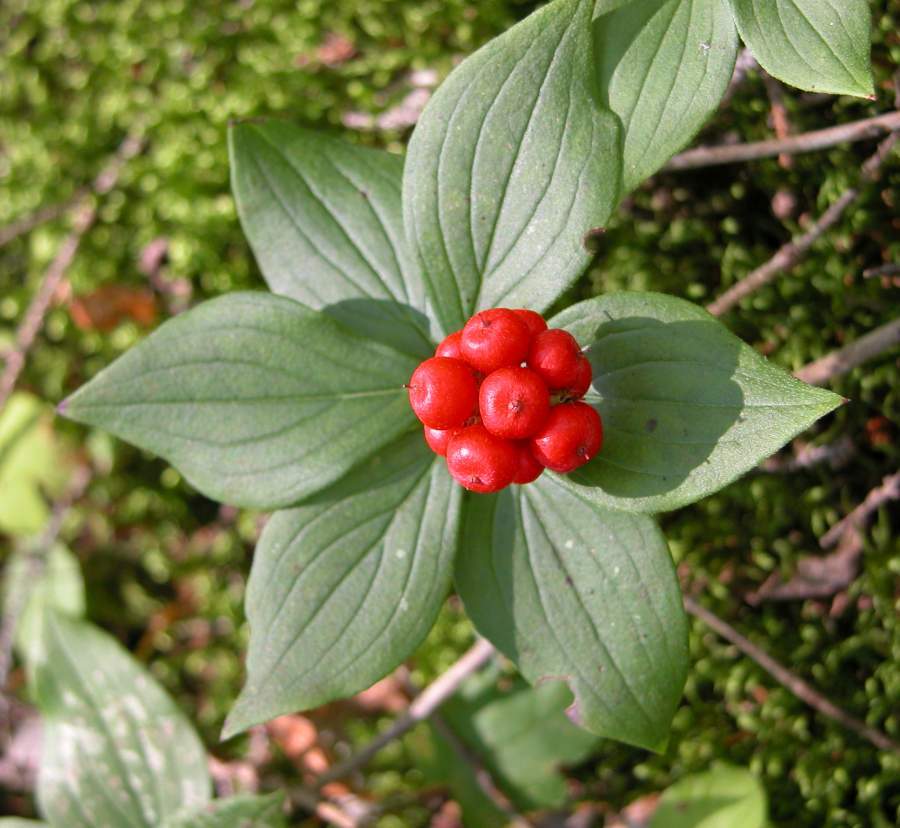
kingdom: Plantae
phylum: Tracheophyta
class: Magnoliopsida
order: Cornales
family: Cornaceae
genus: Cornus
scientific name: Cornus canadensis
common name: Creeping dogwood
